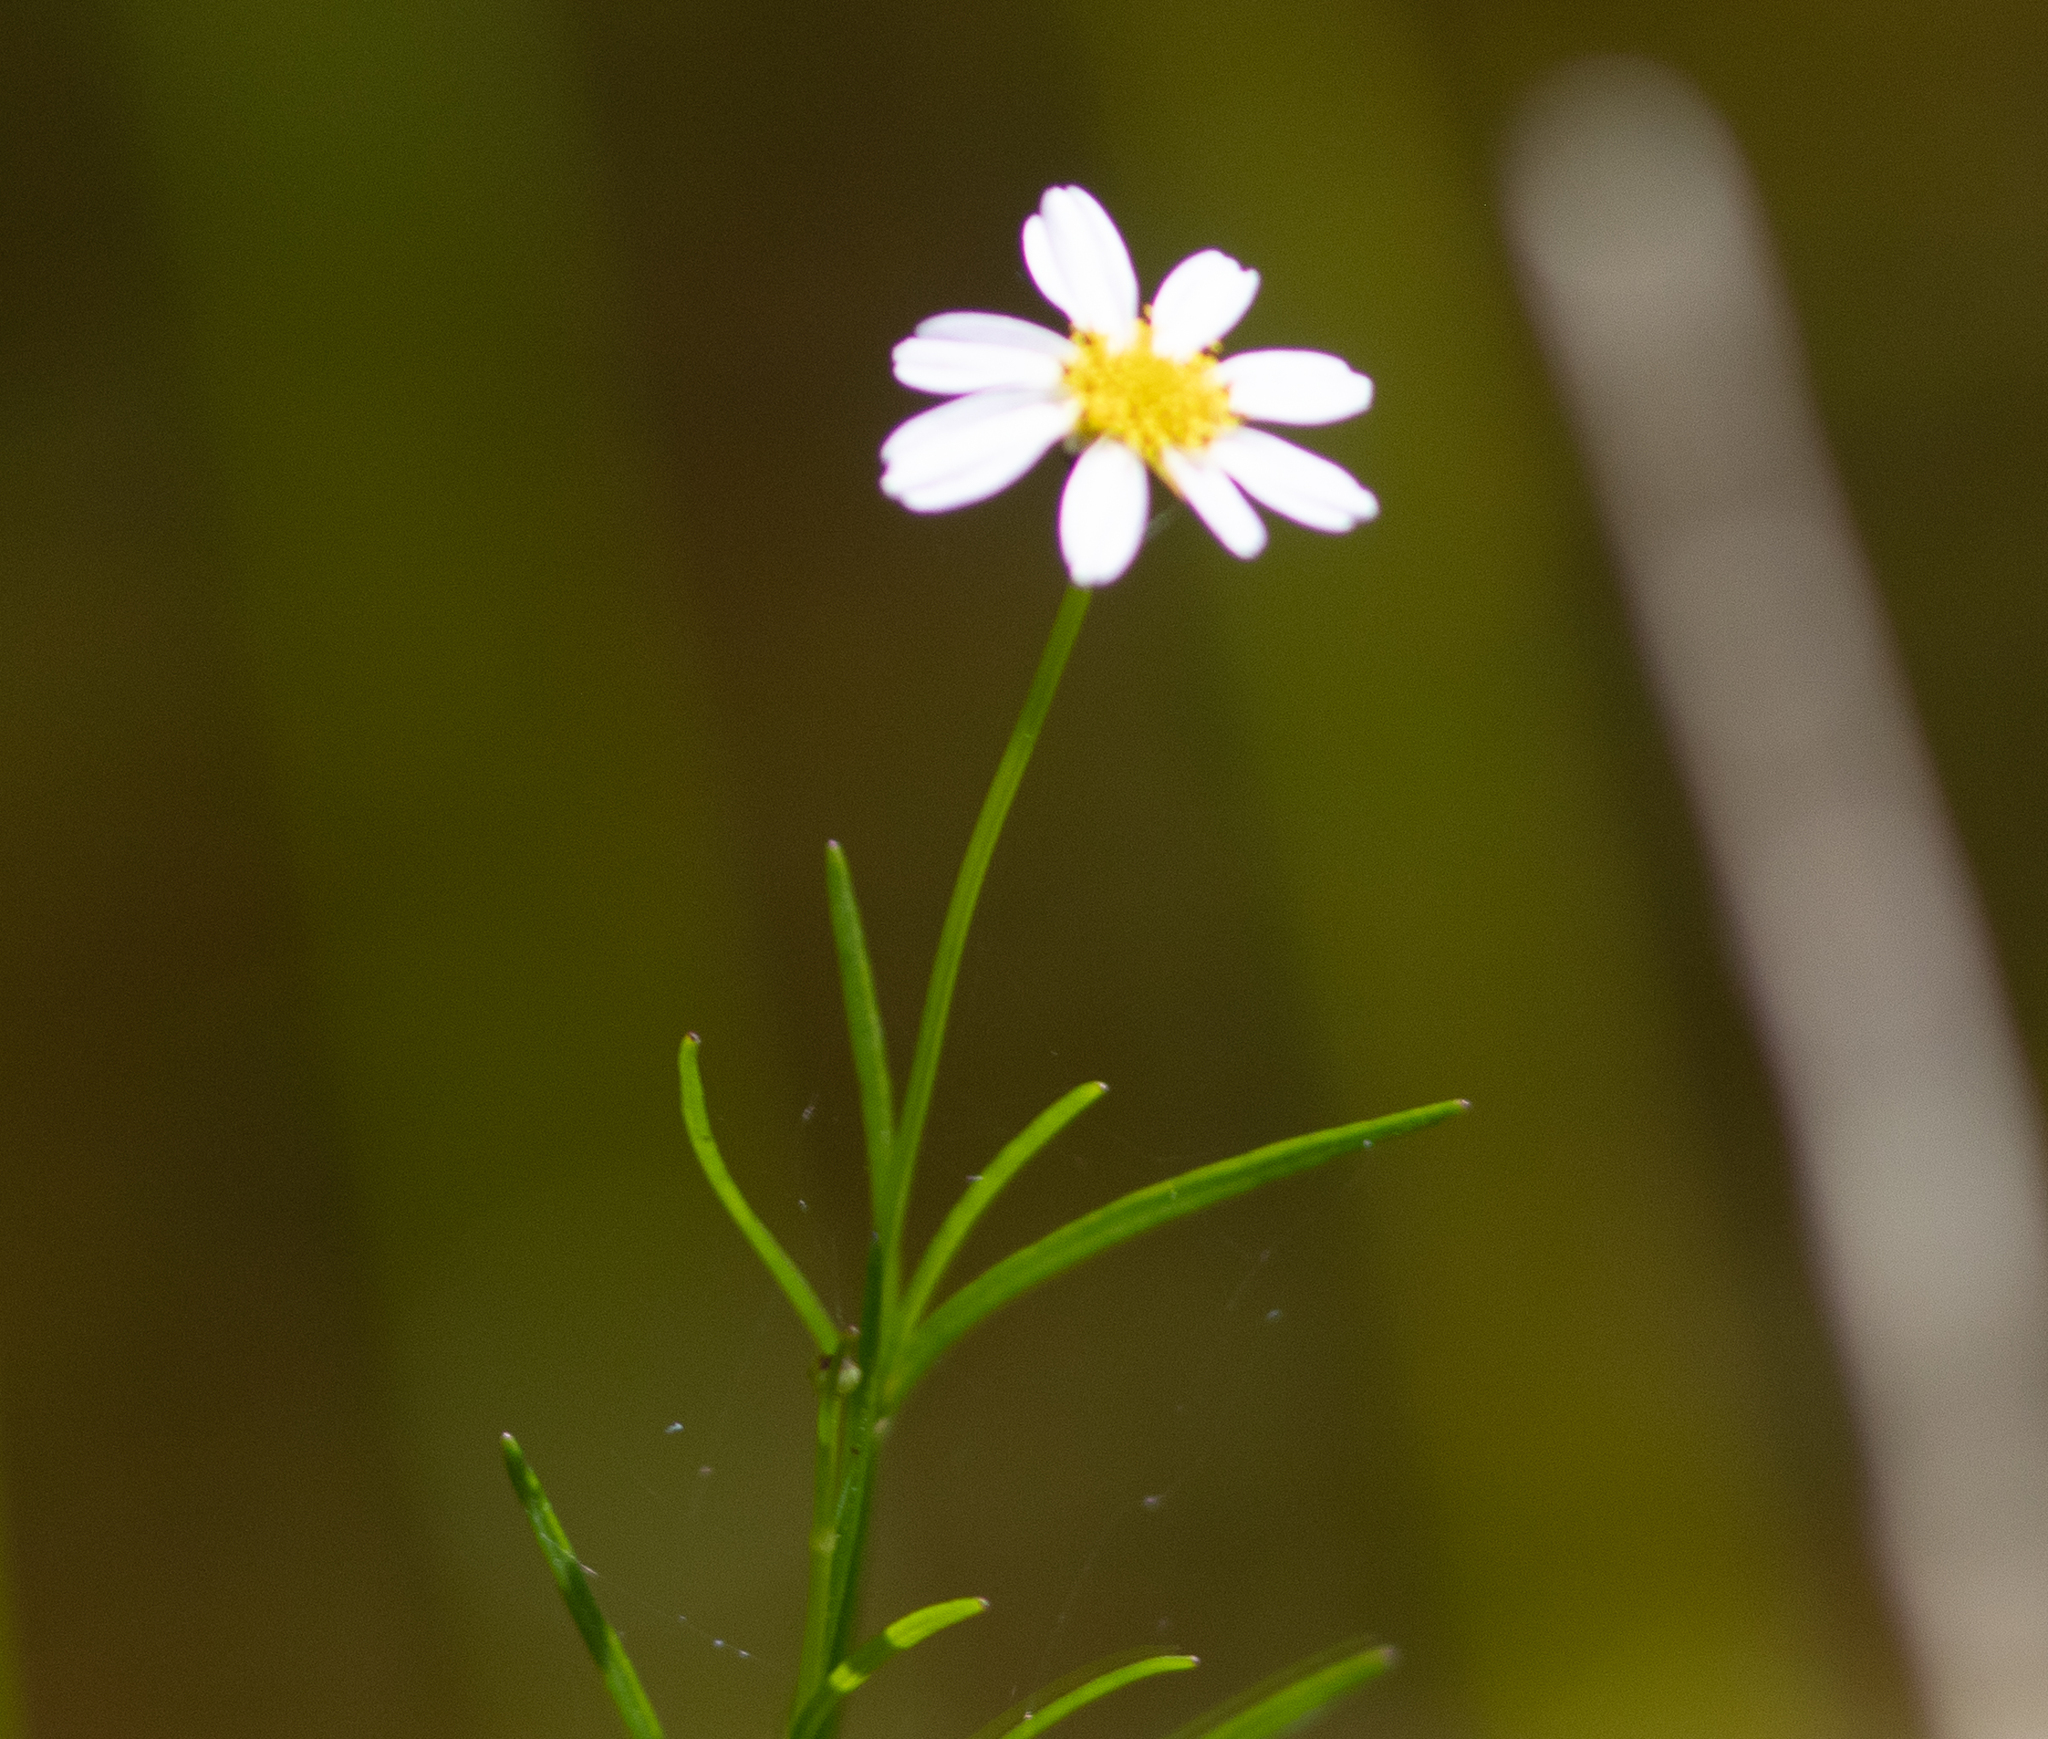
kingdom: Plantae
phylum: Tracheophyta
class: Magnoliopsida
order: Asterales
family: Asteraceae
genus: Coreopsis
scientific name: Coreopsis rosea
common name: Pink coreopsis
